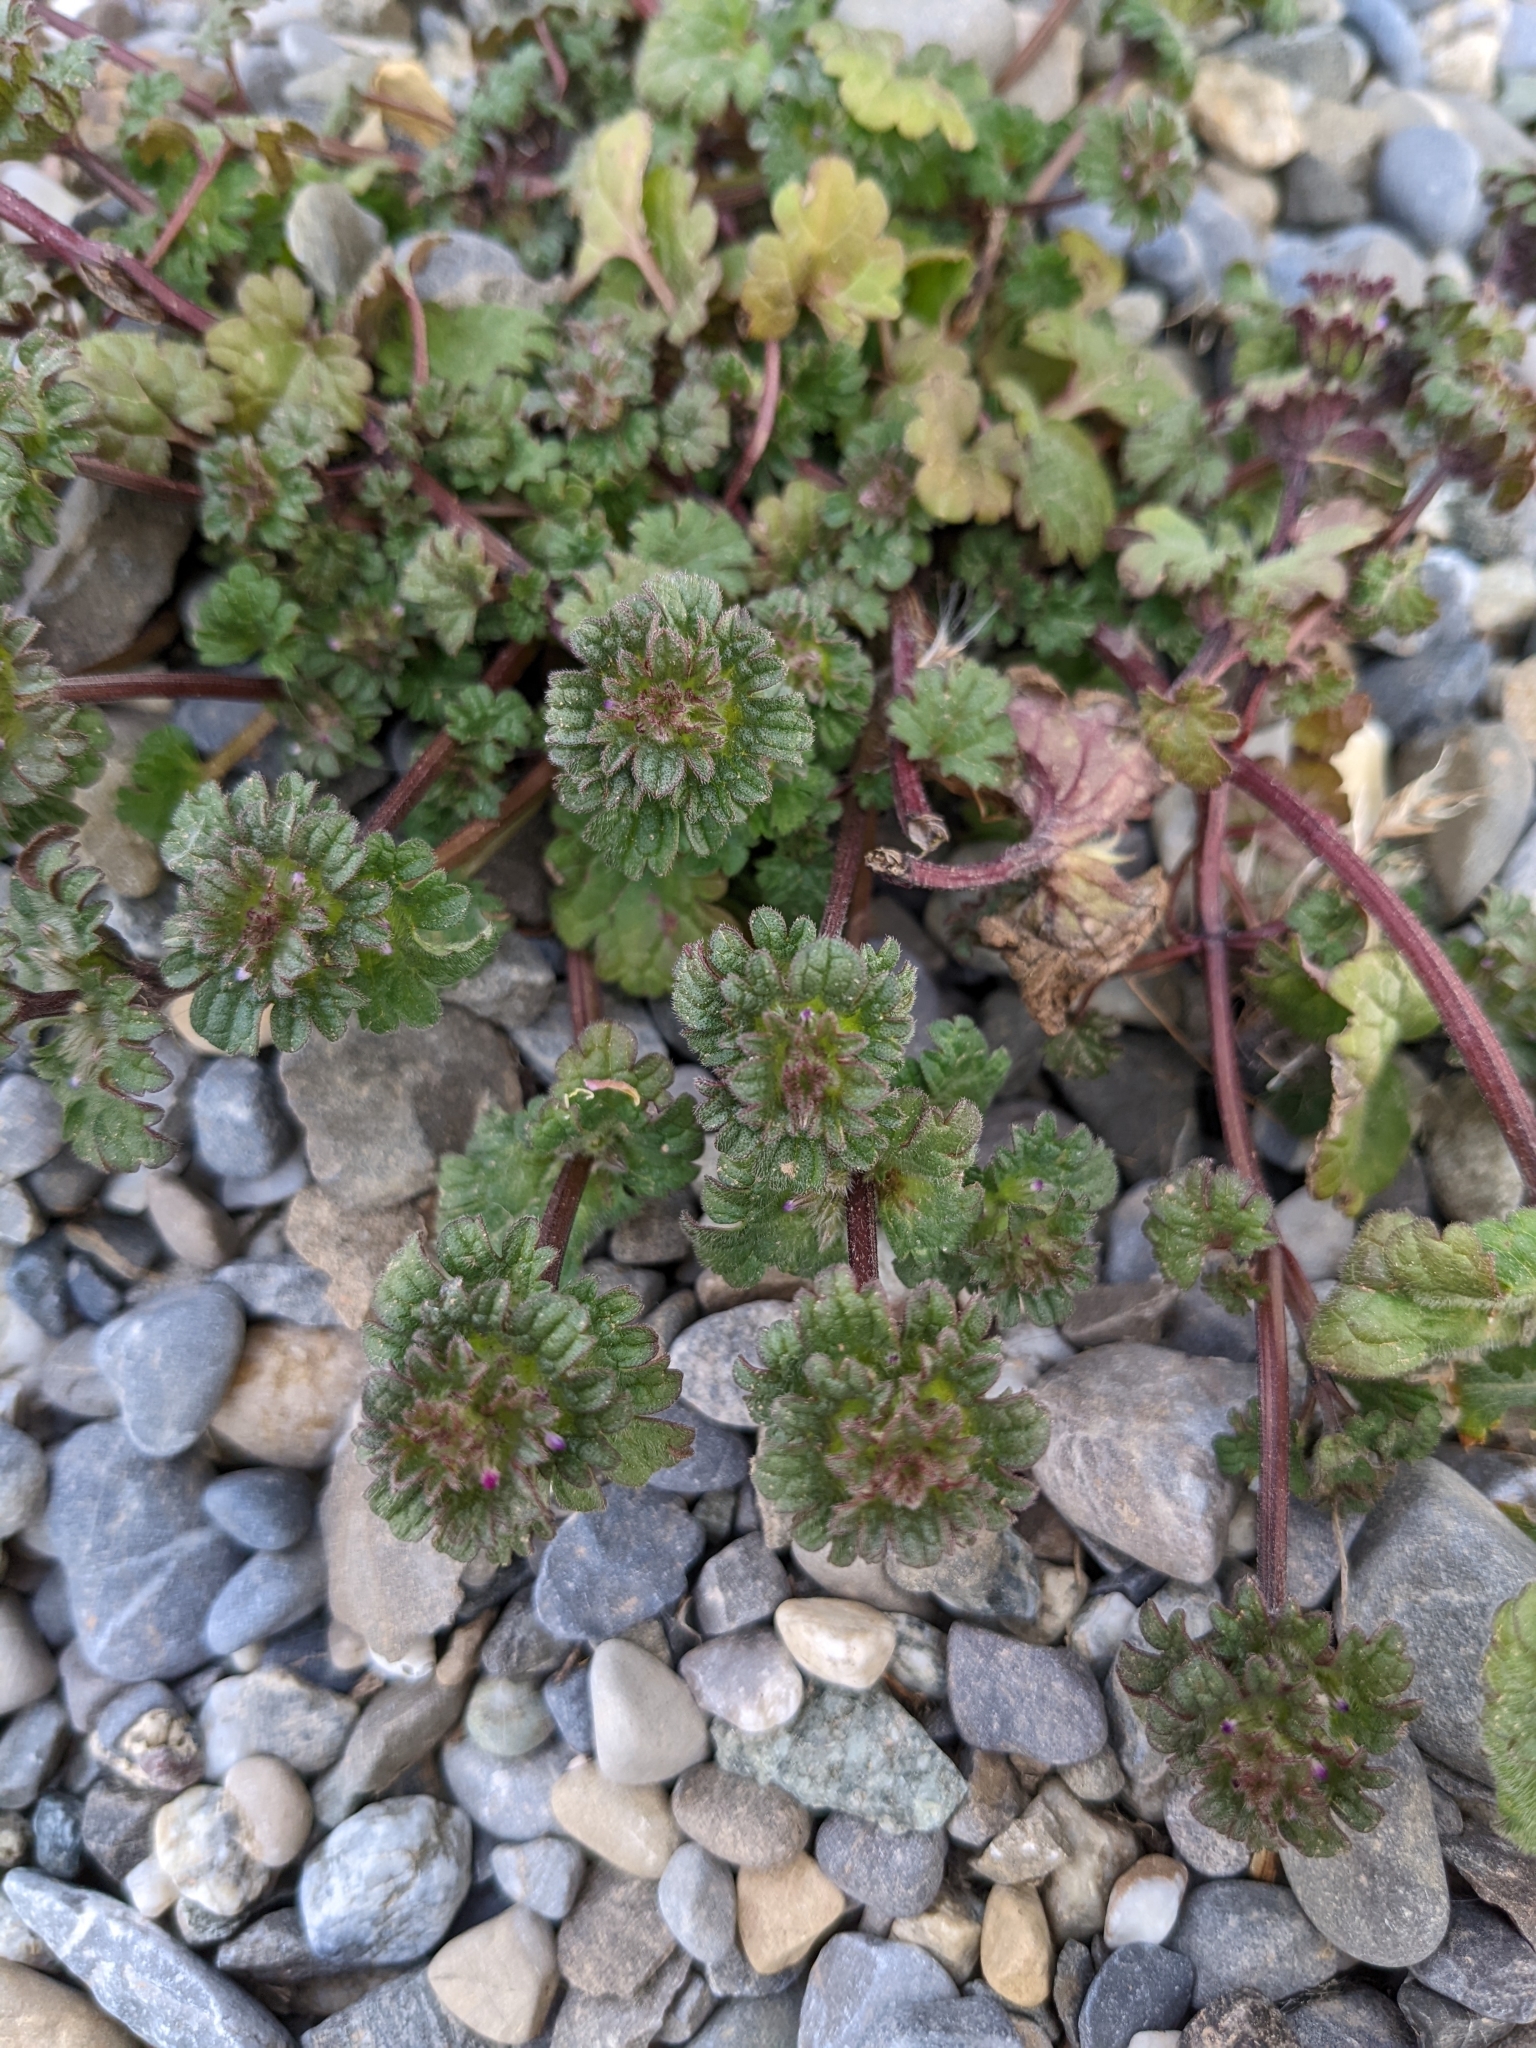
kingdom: Plantae
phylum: Tracheophyta
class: Magnoliopsida
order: Lamiales
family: Lamiaceae
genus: Lamium
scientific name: Lamium amplexicaule
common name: Henbit dead-nettle
